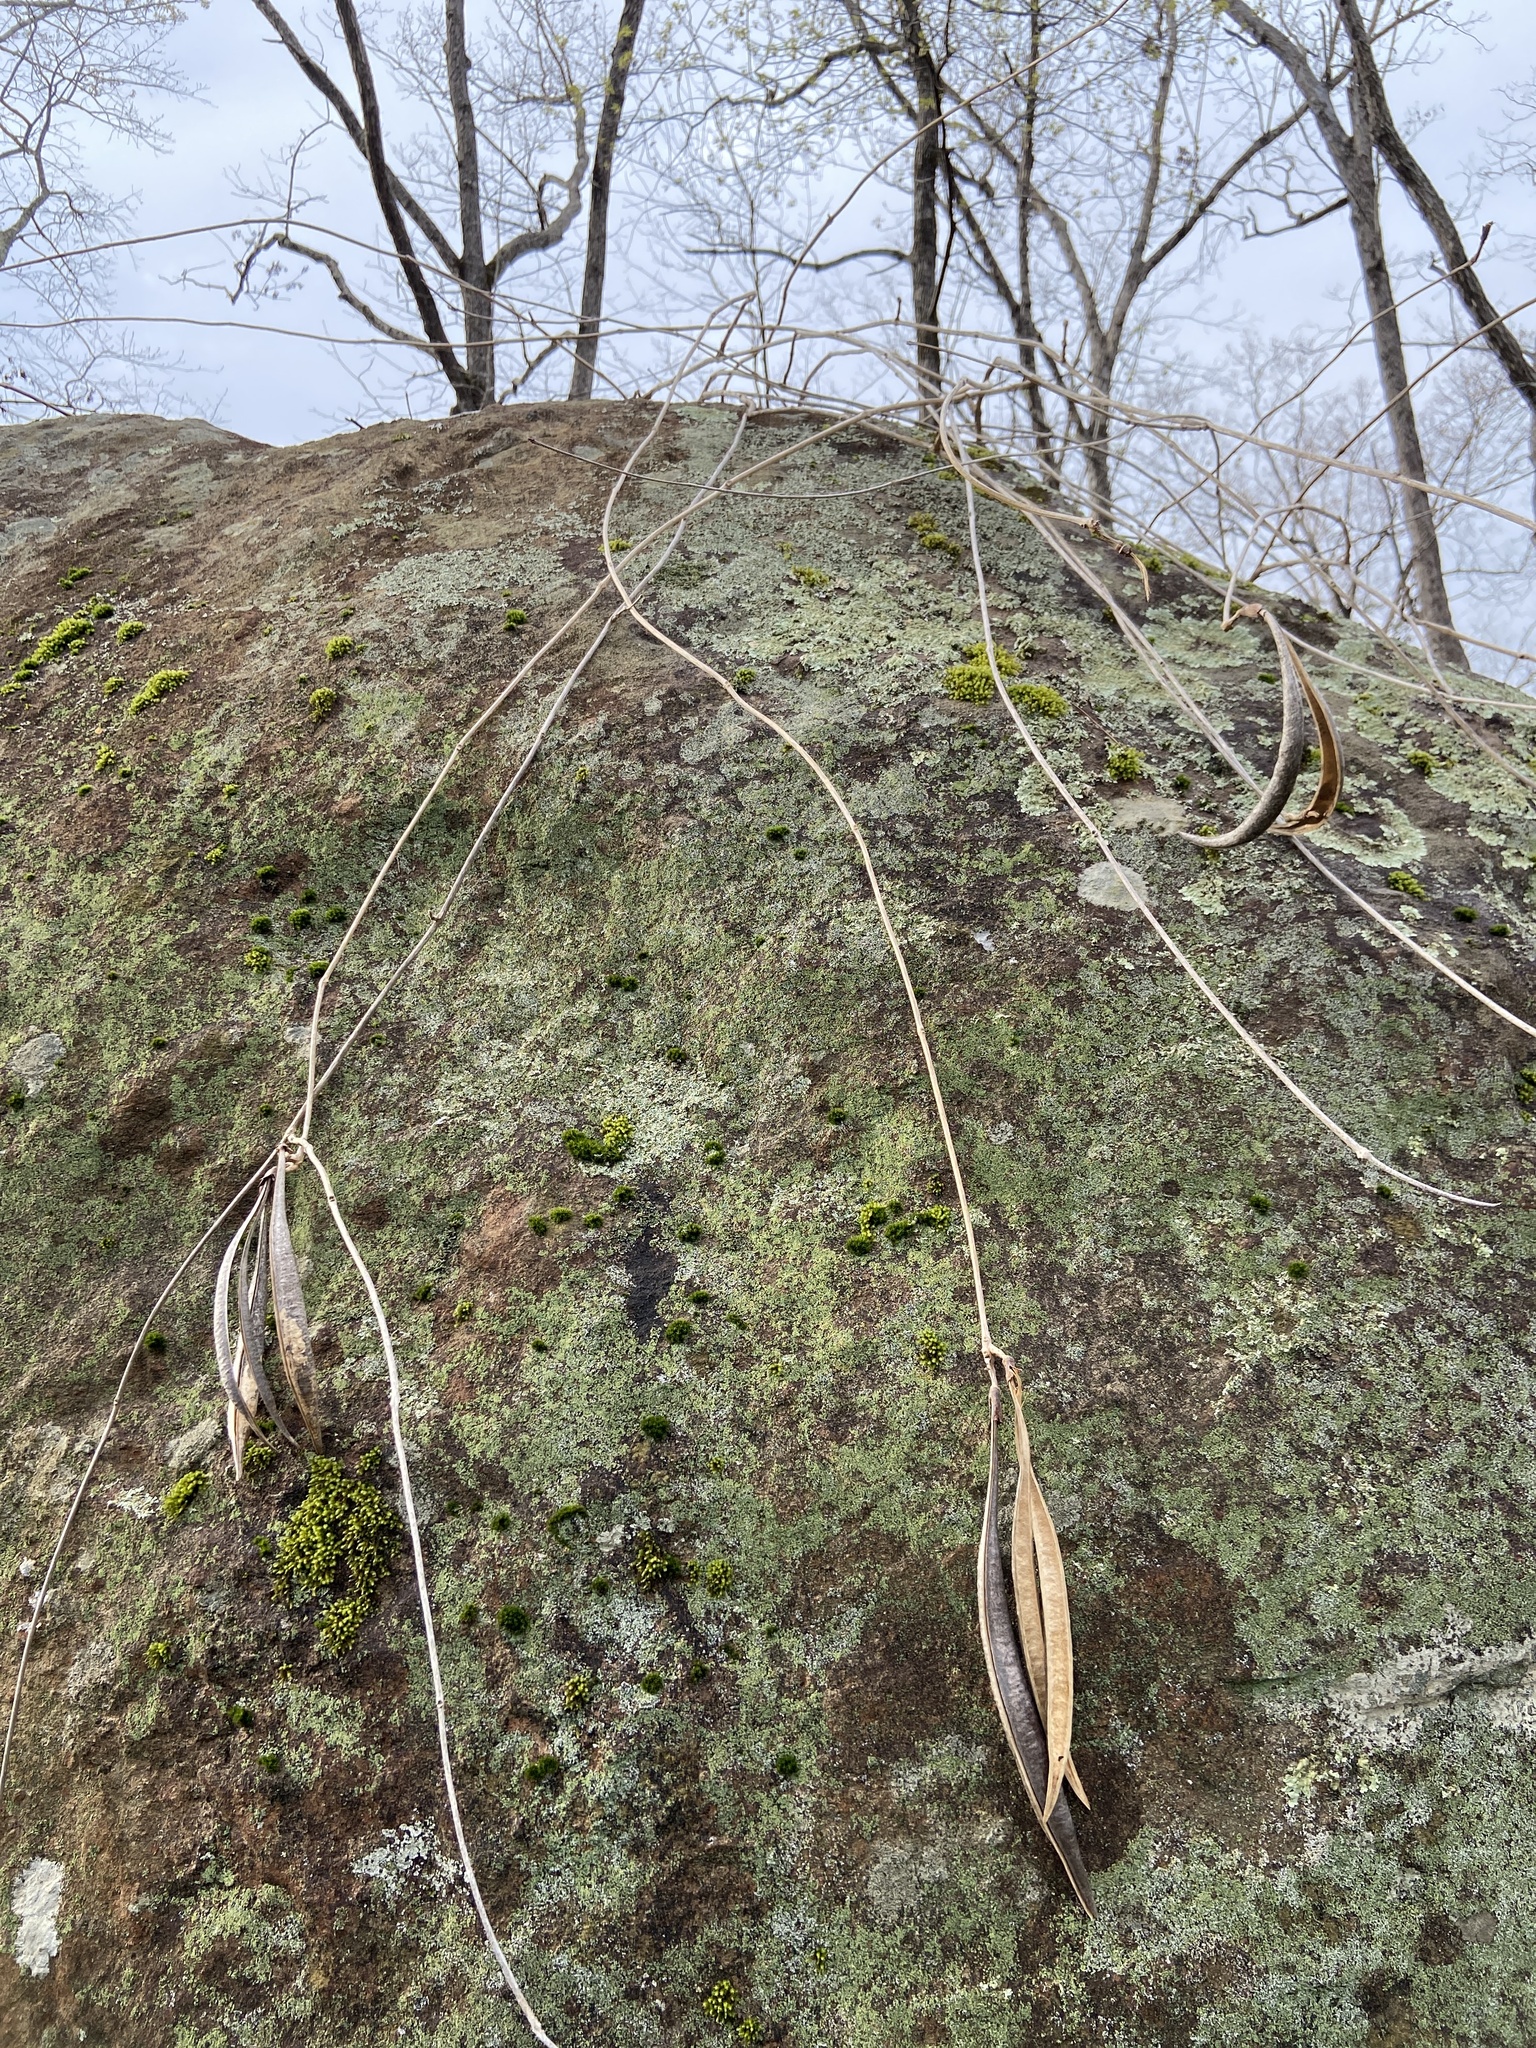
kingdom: Plantae
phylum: Tracheophyta
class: Magnoliopsida
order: Lamiales
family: Bignoniaceae
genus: Campsis
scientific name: Campsis radicans
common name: Trumpet-creeper
